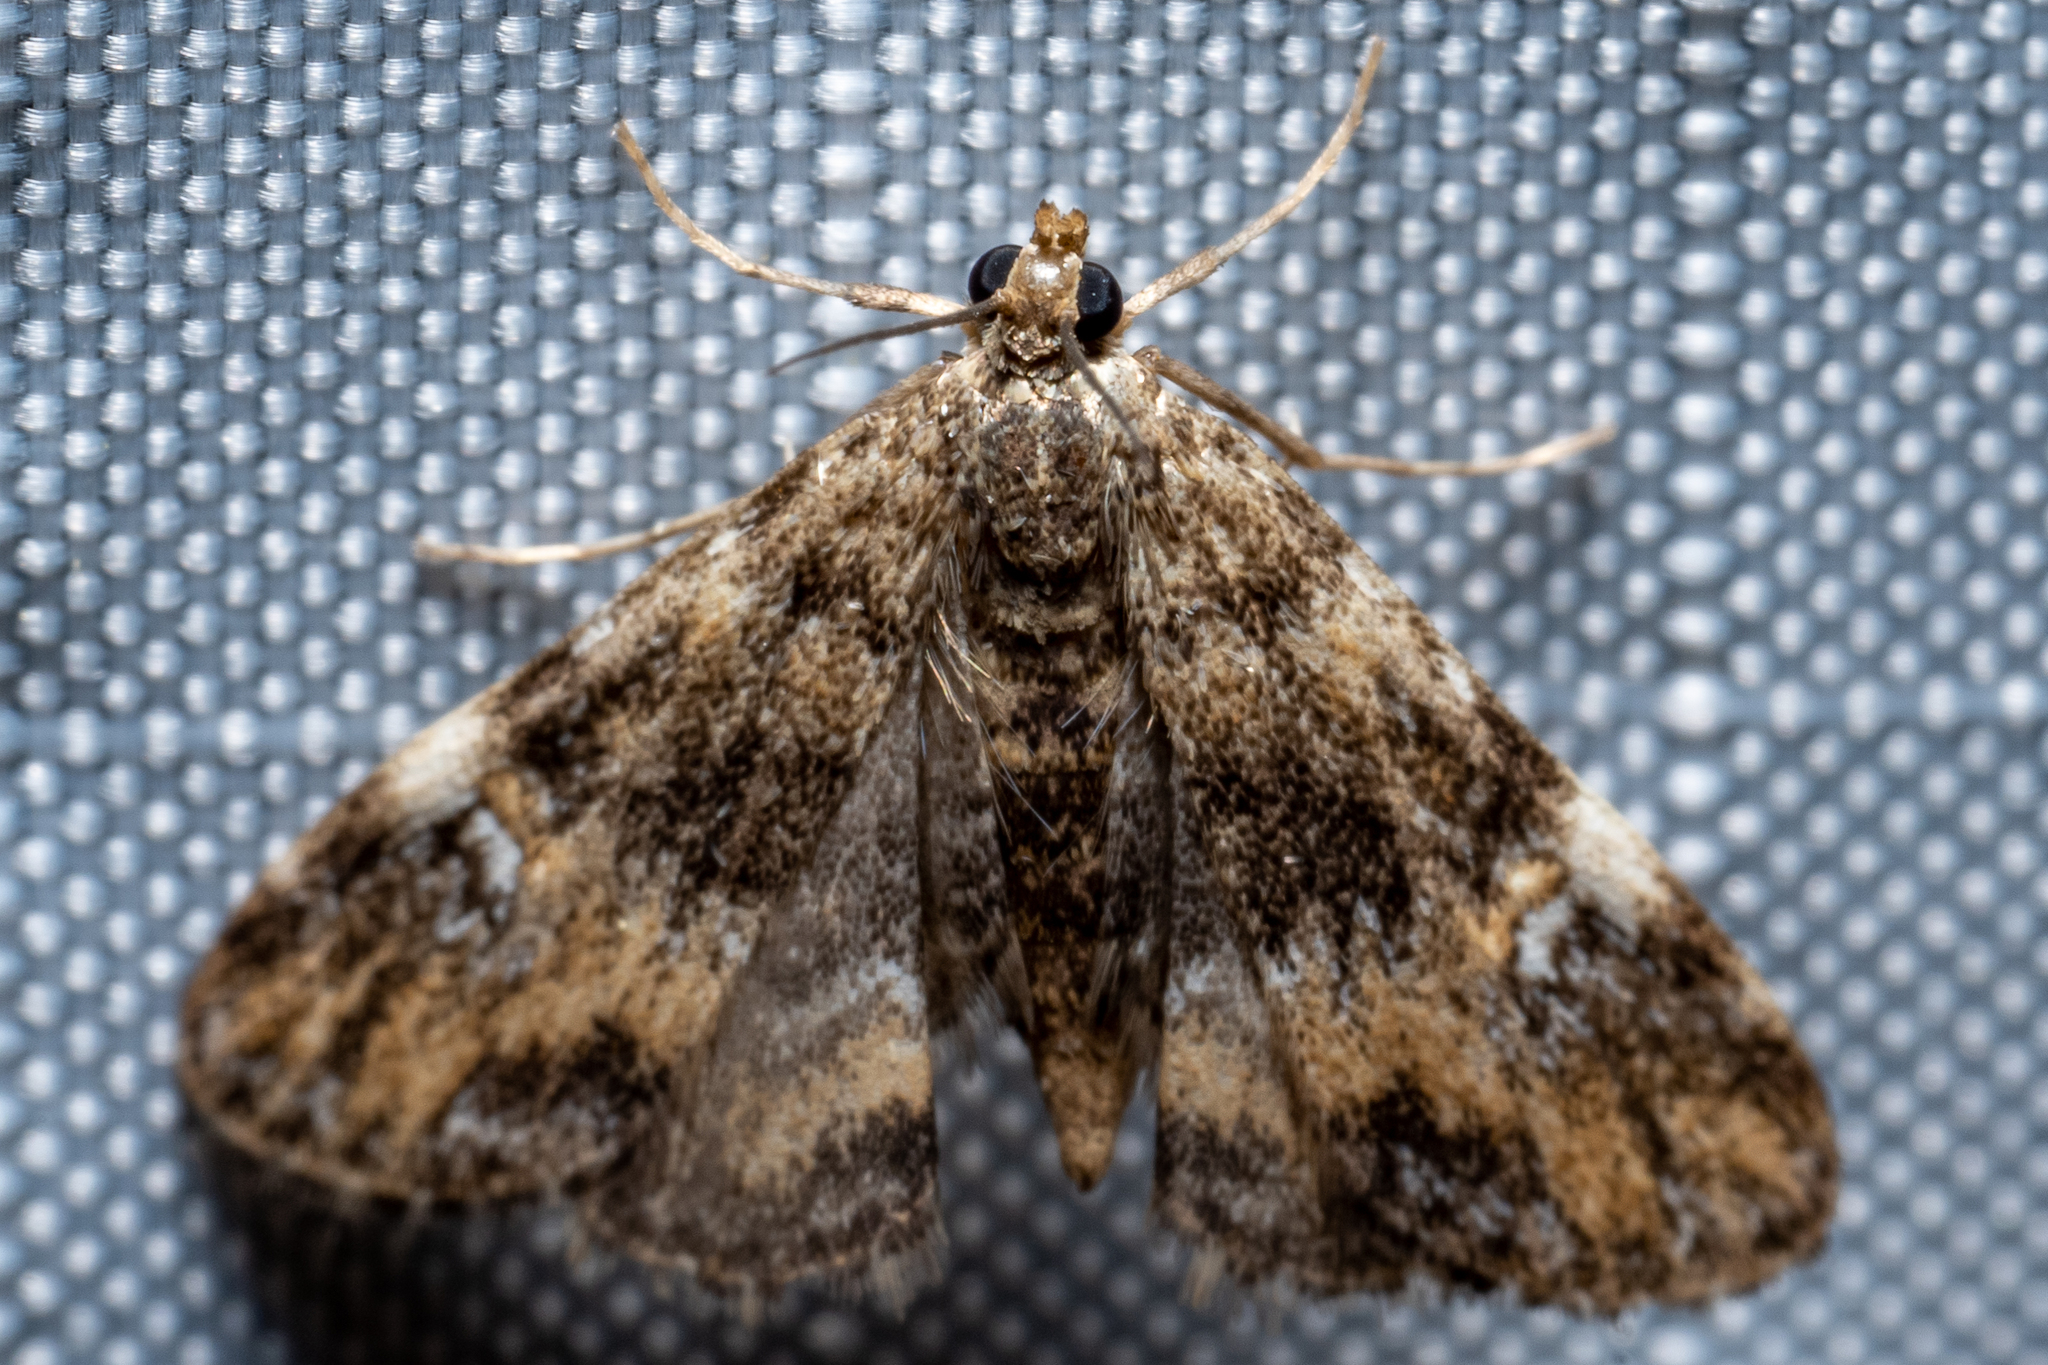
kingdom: Animalia
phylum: Arthropoda
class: Insecta
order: Lepidoptera
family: Crambidae
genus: Elophila
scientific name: Elophila obliteralis
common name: Waterlily leafcutter moth
